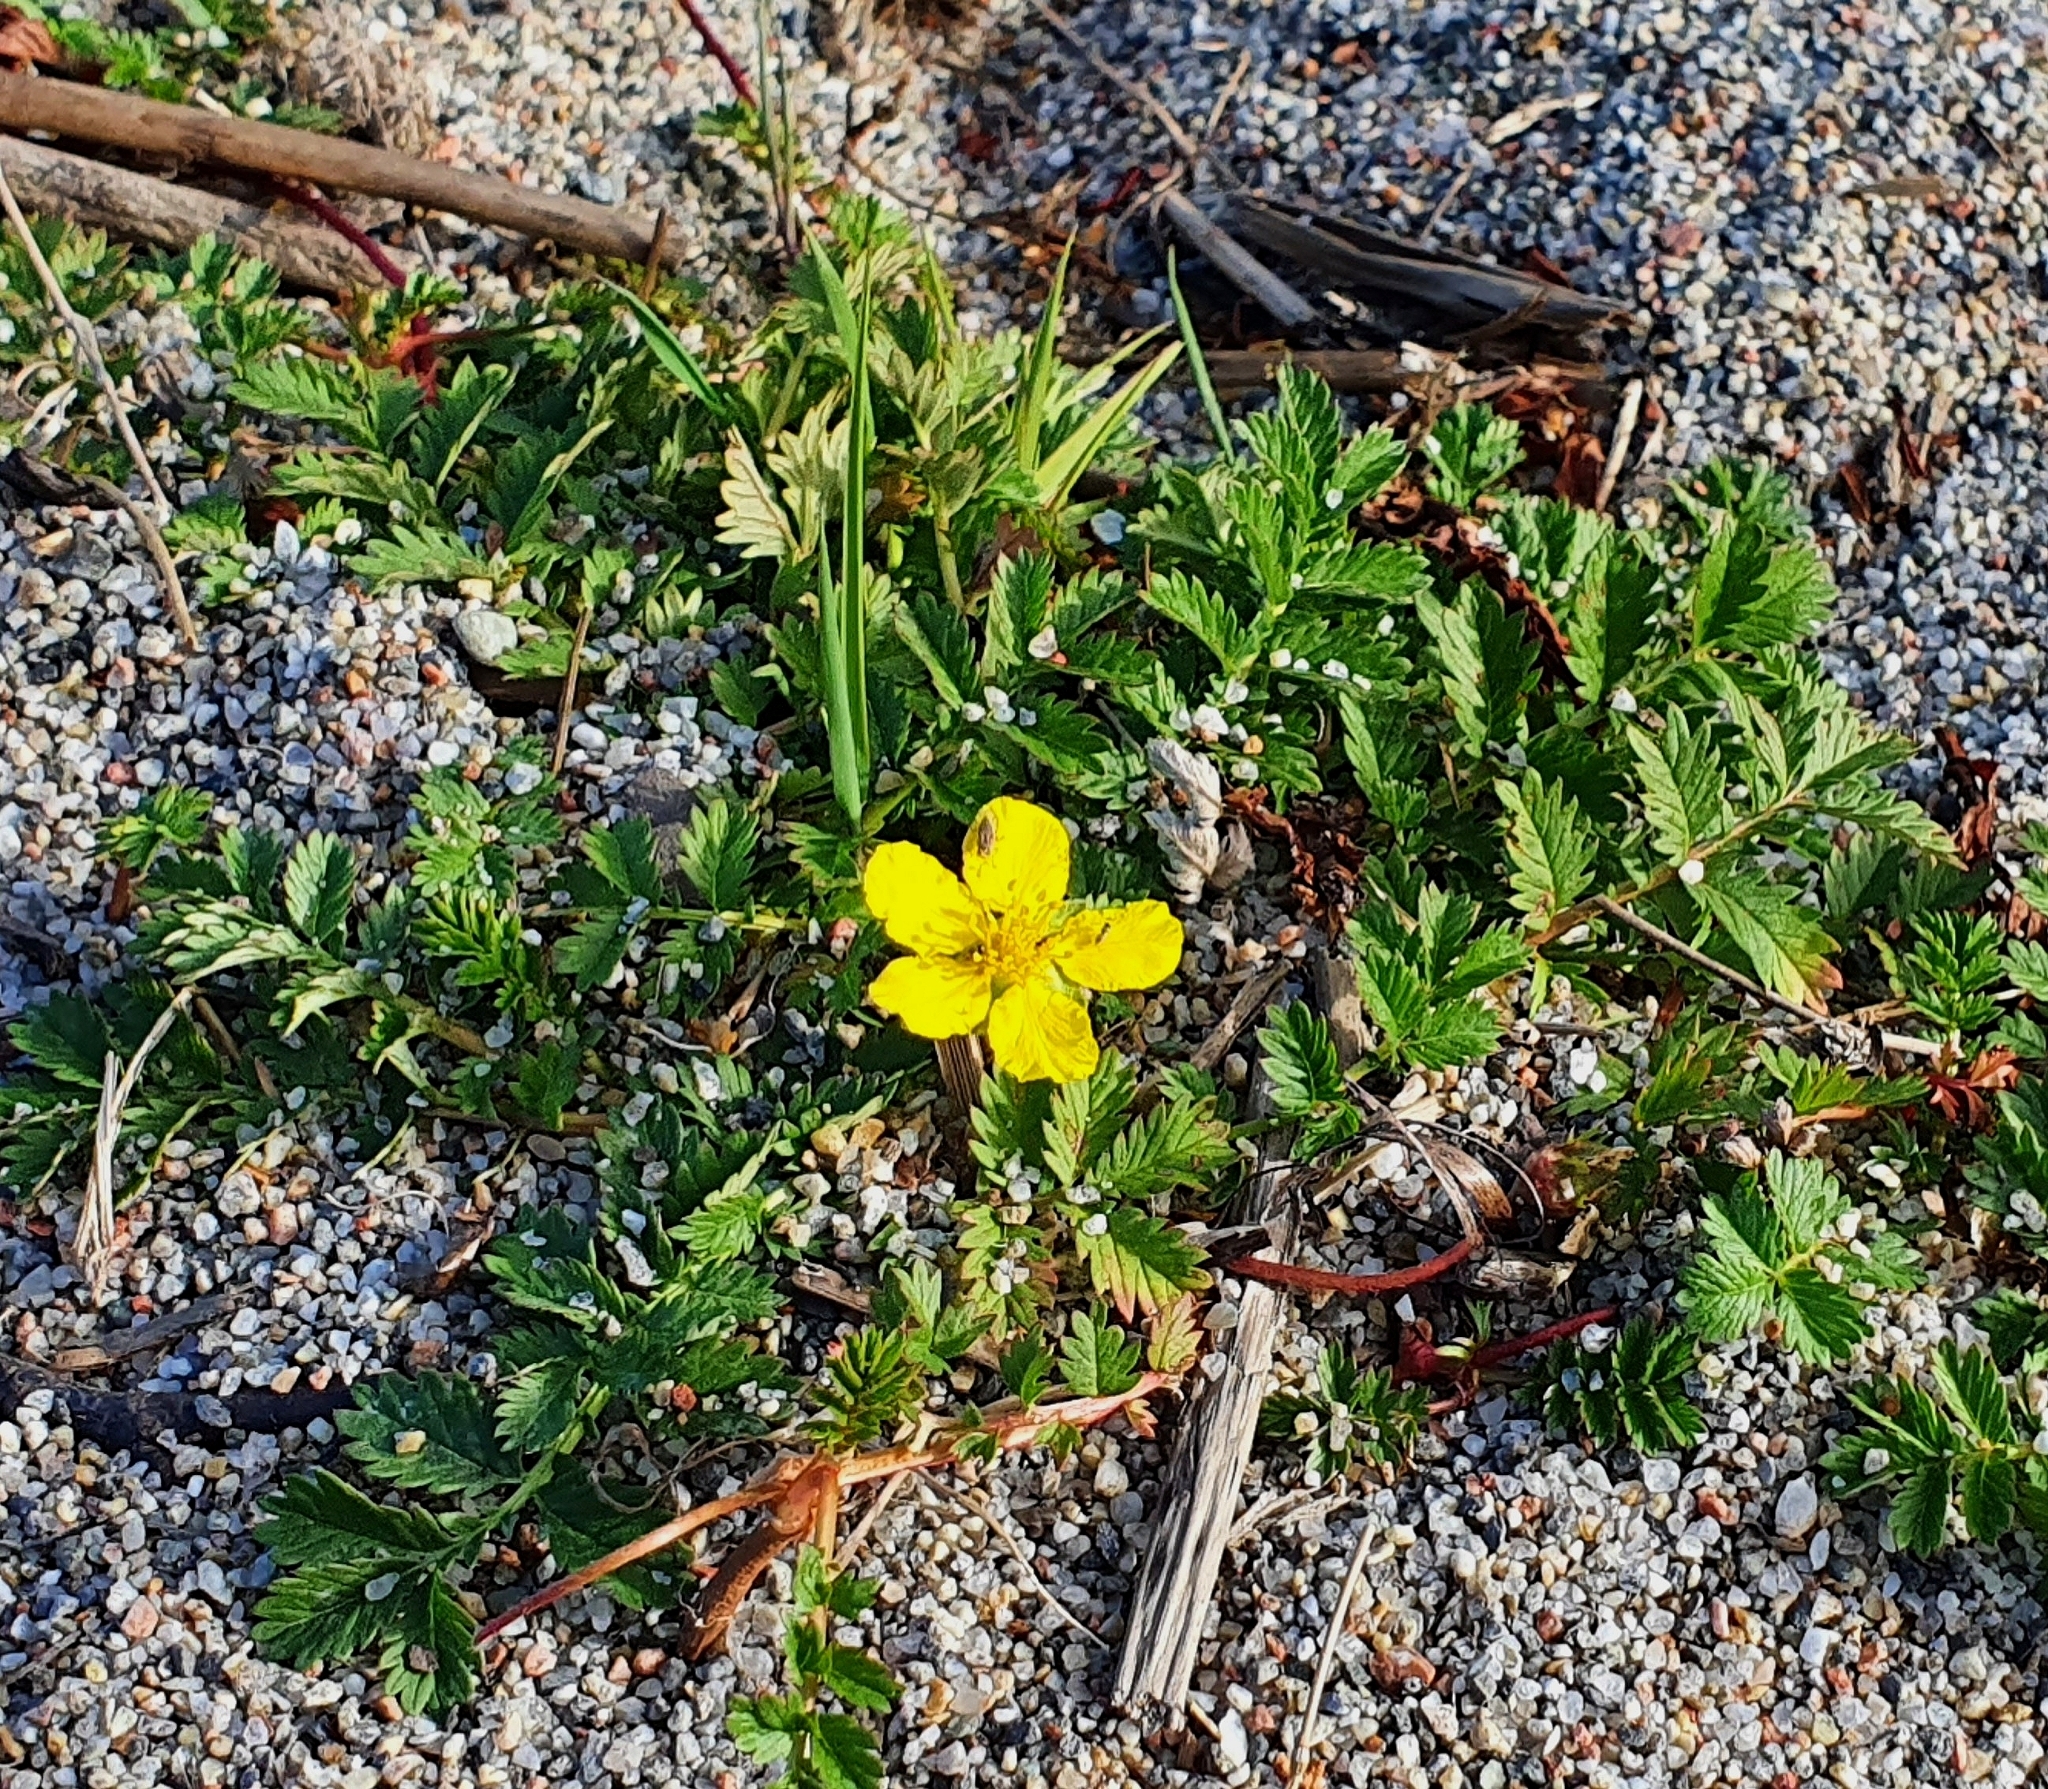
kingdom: Plantae
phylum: Tracheophyta
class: Magnoliopsida
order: Rosales
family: Rosaceae
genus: Argentina
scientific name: Argentina anserina
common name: Common silverweed
